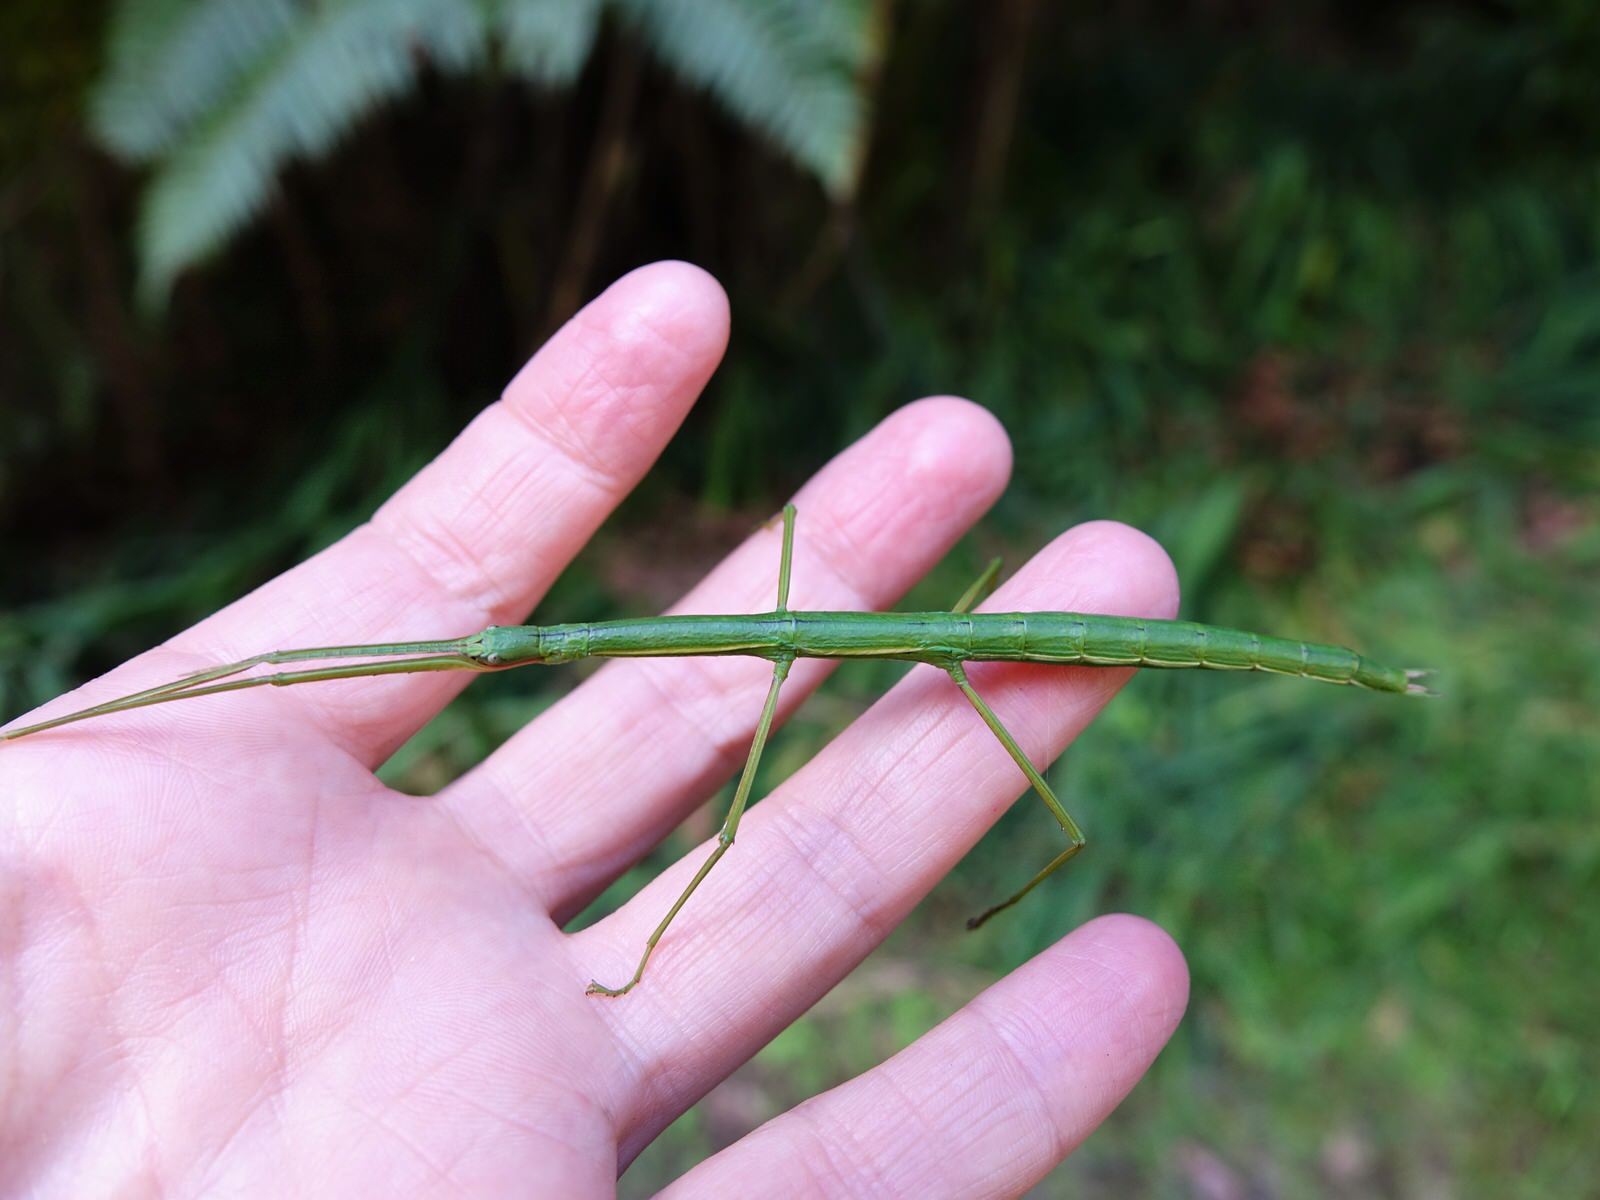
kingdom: Animalia
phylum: Arthropoda
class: Insecta
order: Phasmida
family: Phasmatidae
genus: Clitarchus
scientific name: Clitarchus hookeri
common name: Smooth stick insect
